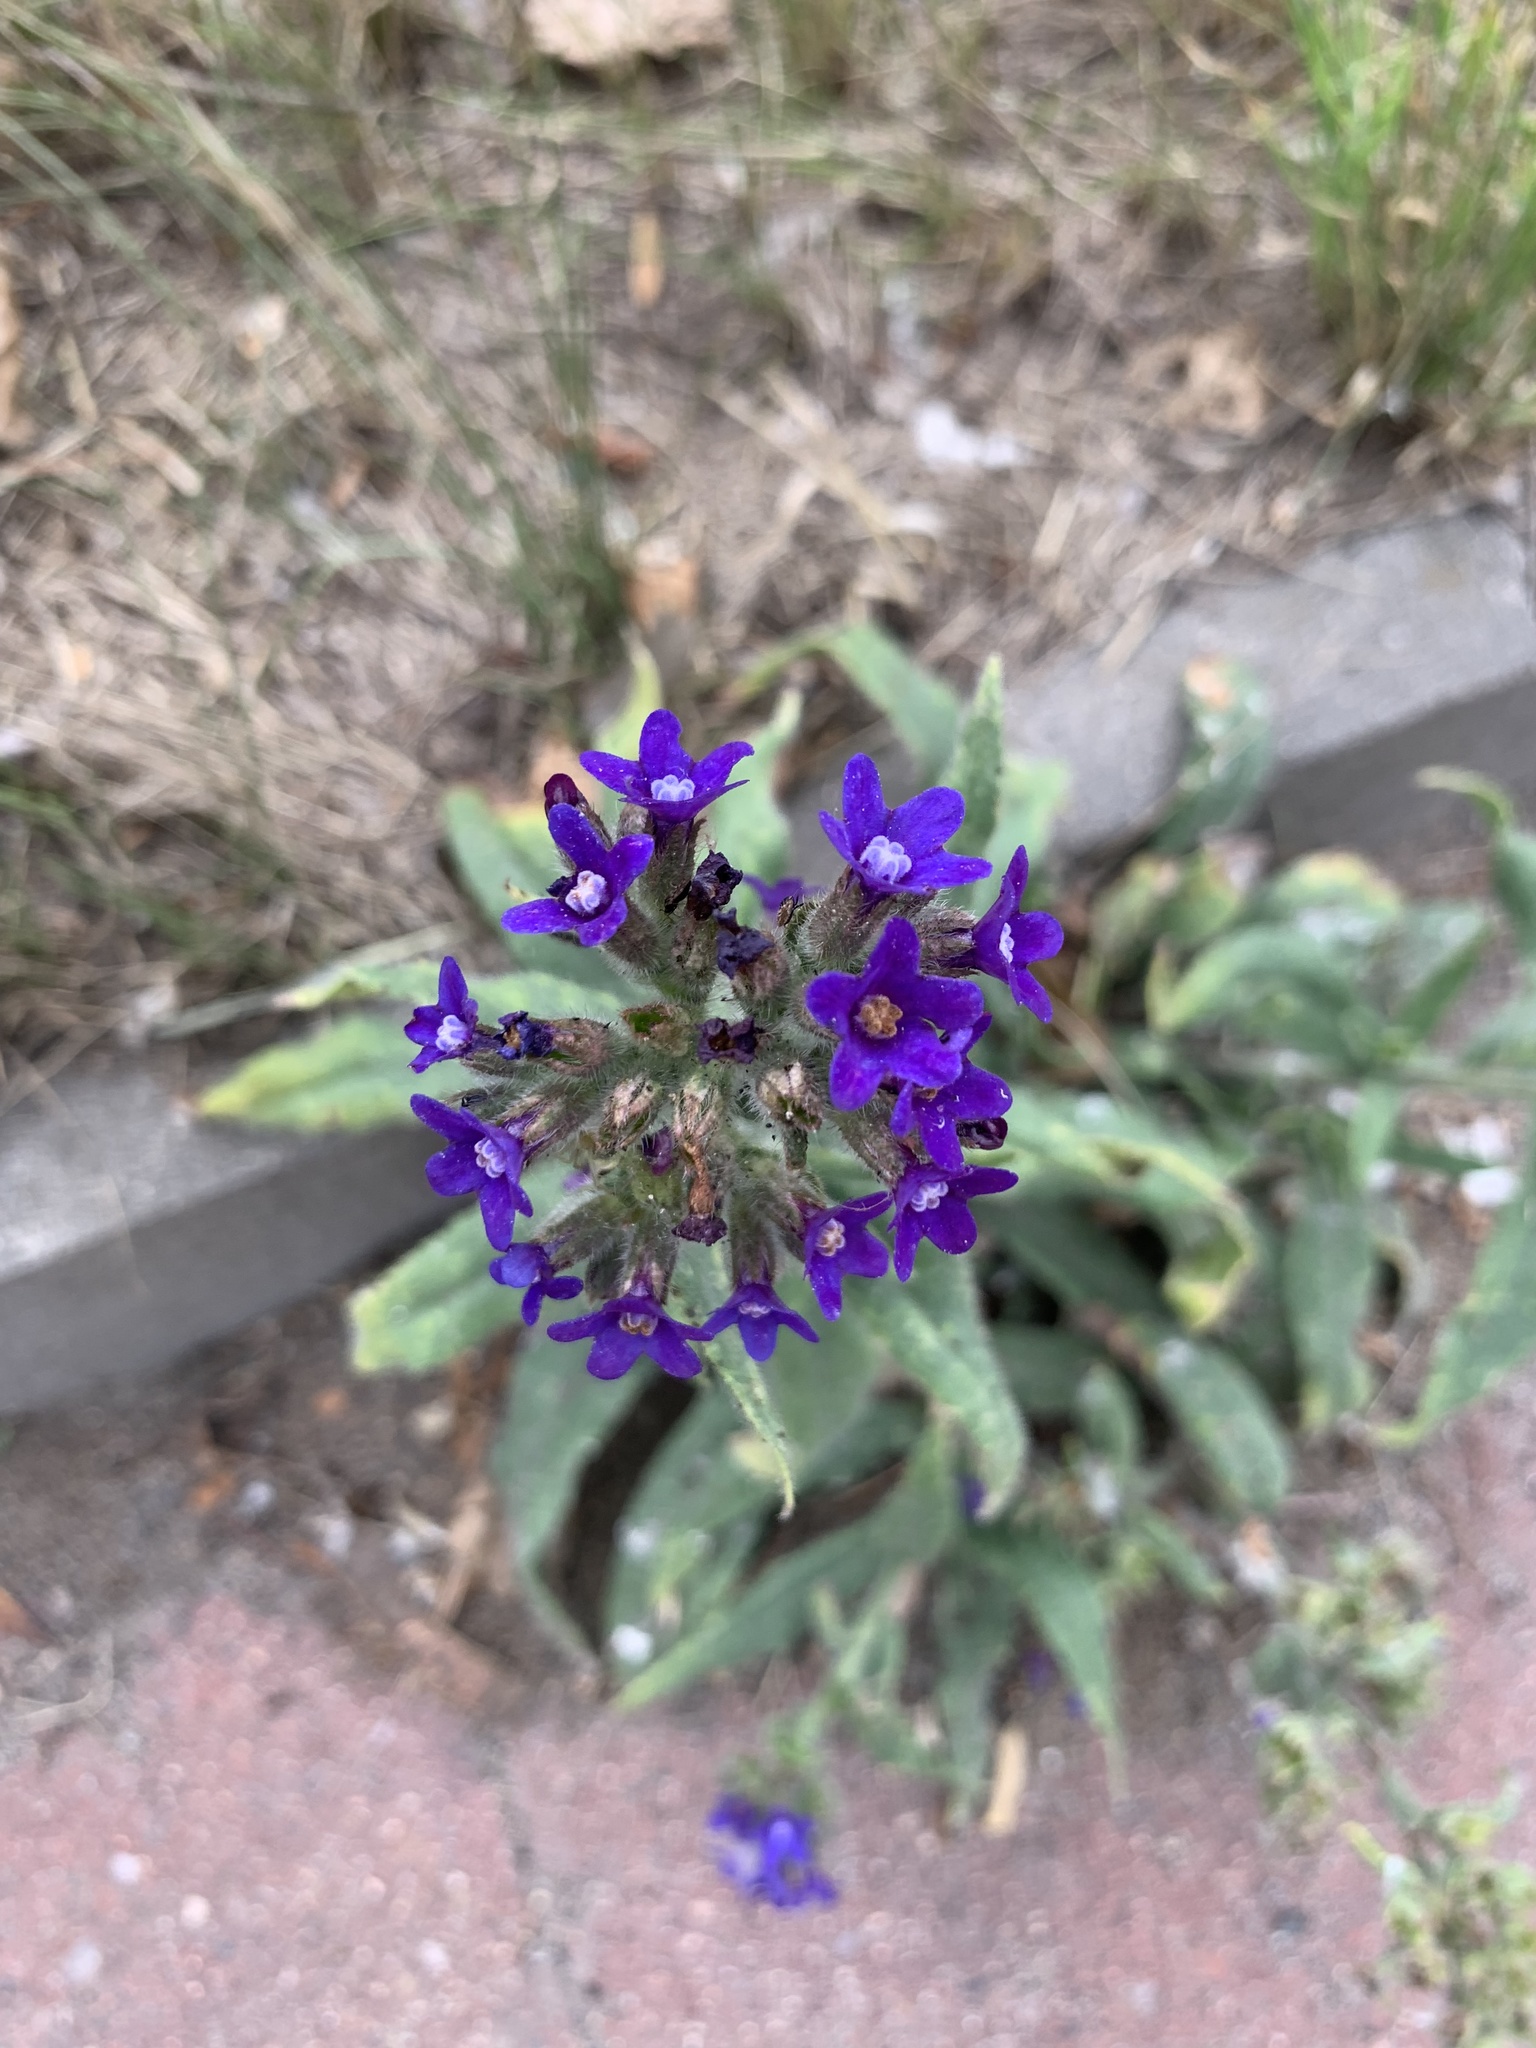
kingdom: Plantae
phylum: Tracheophyta
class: Magnoliopsida
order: Boraginales
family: Boraginaceae
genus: Anchusa
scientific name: Anchusa officinalis
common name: Alkanet
